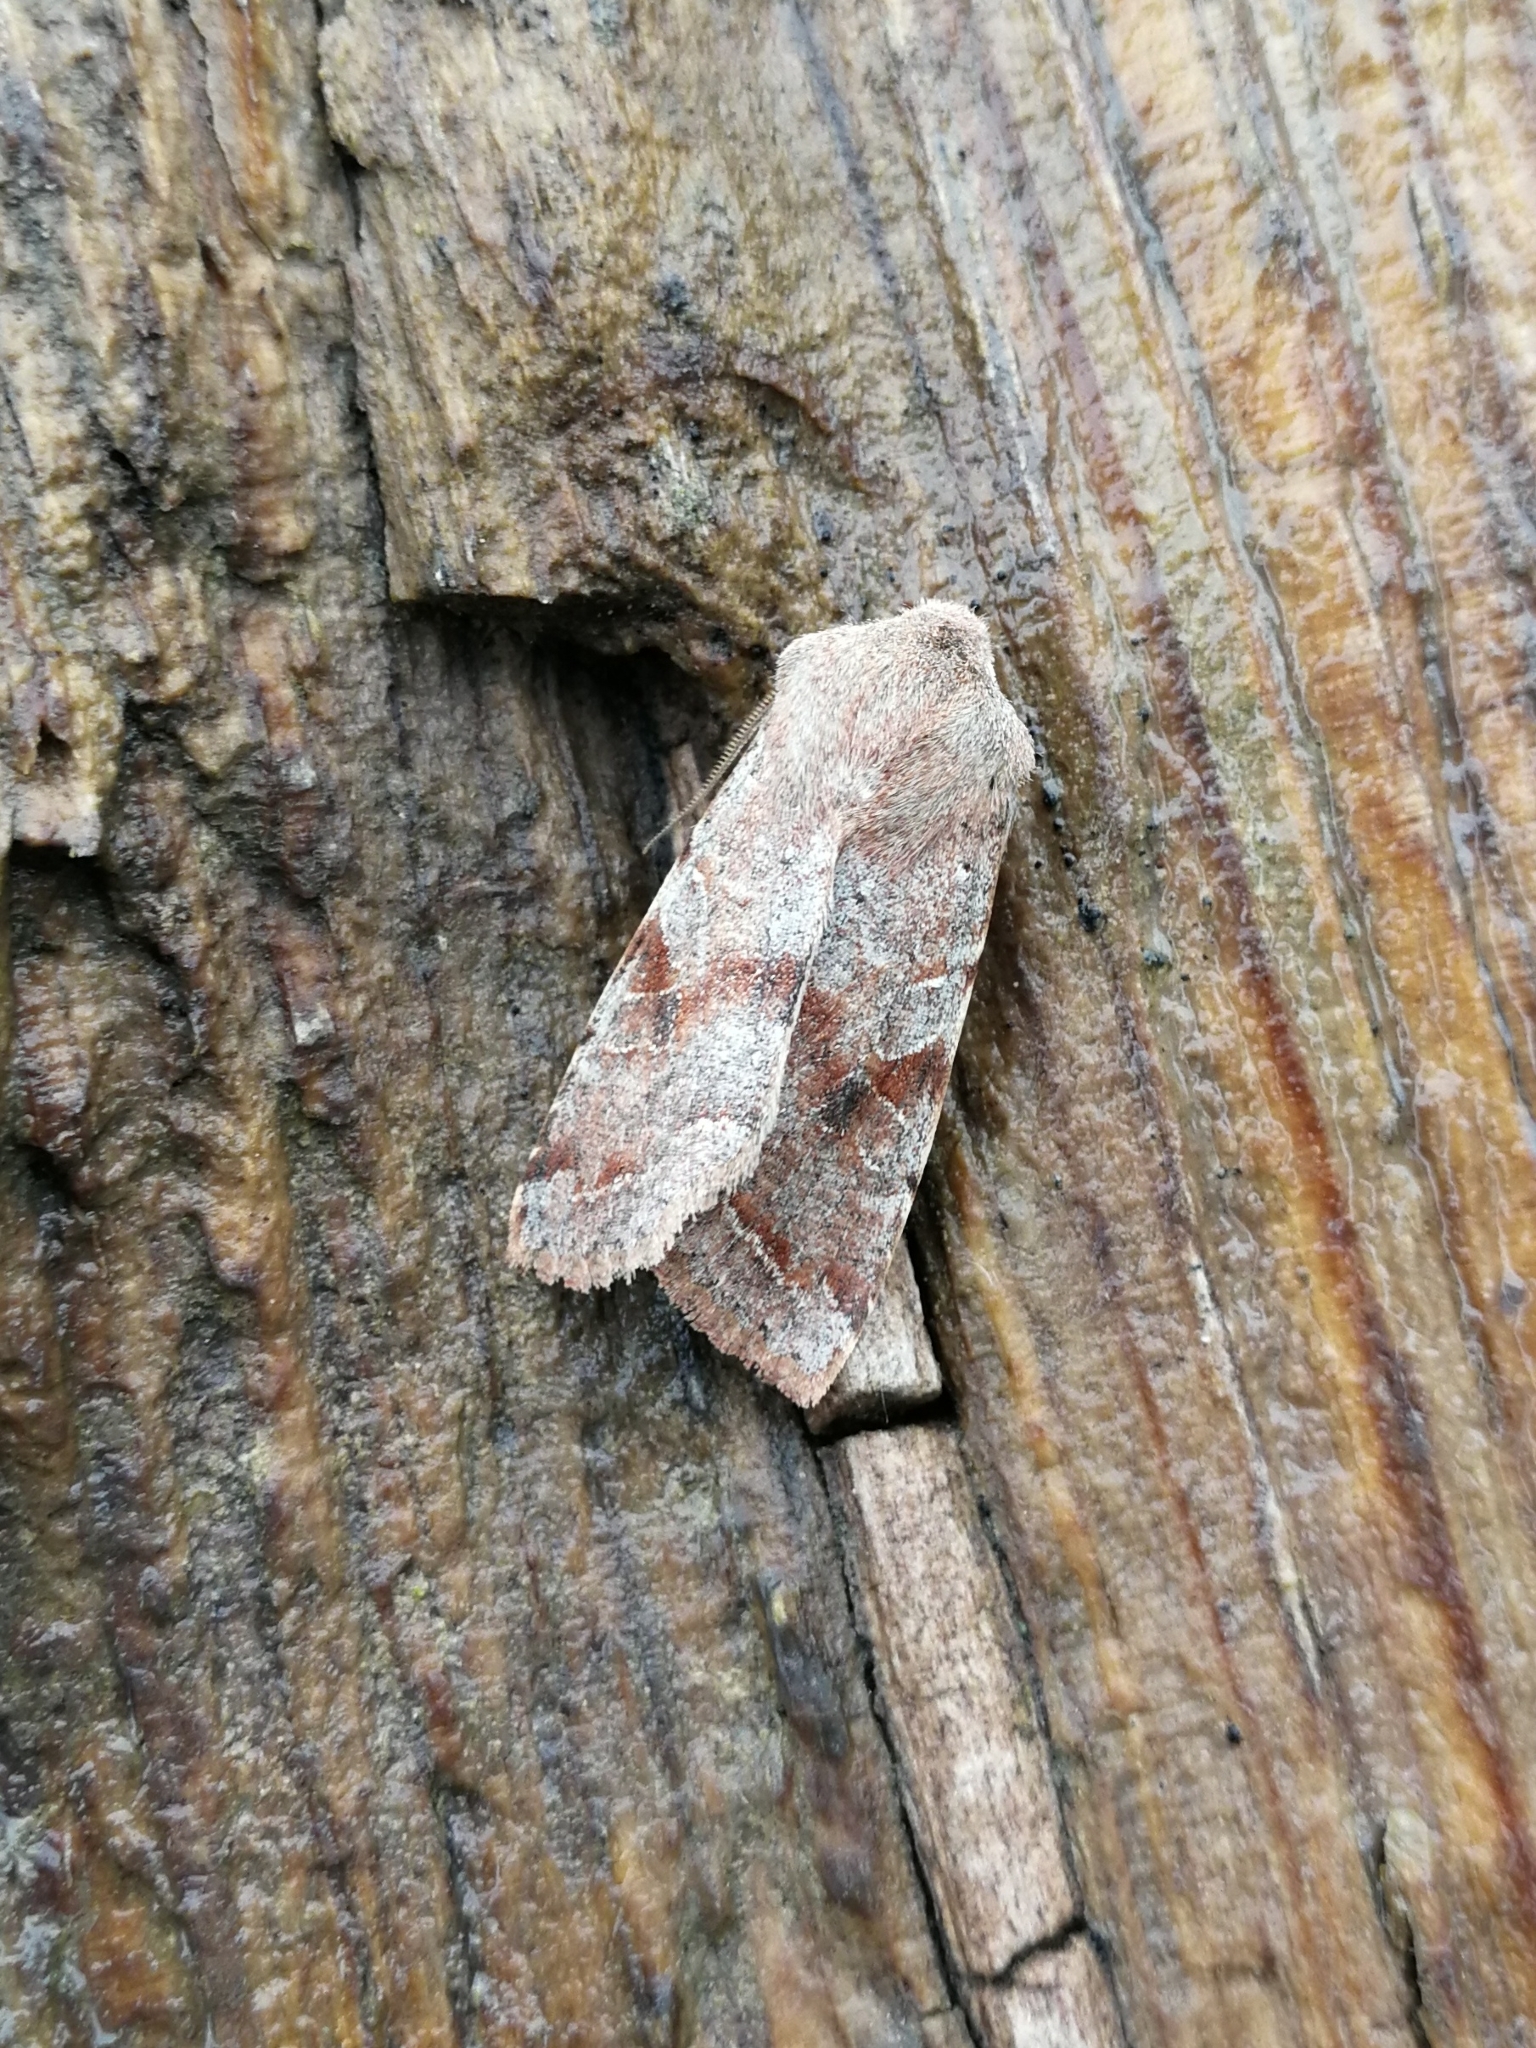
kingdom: Animalia
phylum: Arthropoda
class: Insecta
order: Lepidoptera
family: Noctuidae
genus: Orthosia
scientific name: Orthosia incerta
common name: Clouded drab
